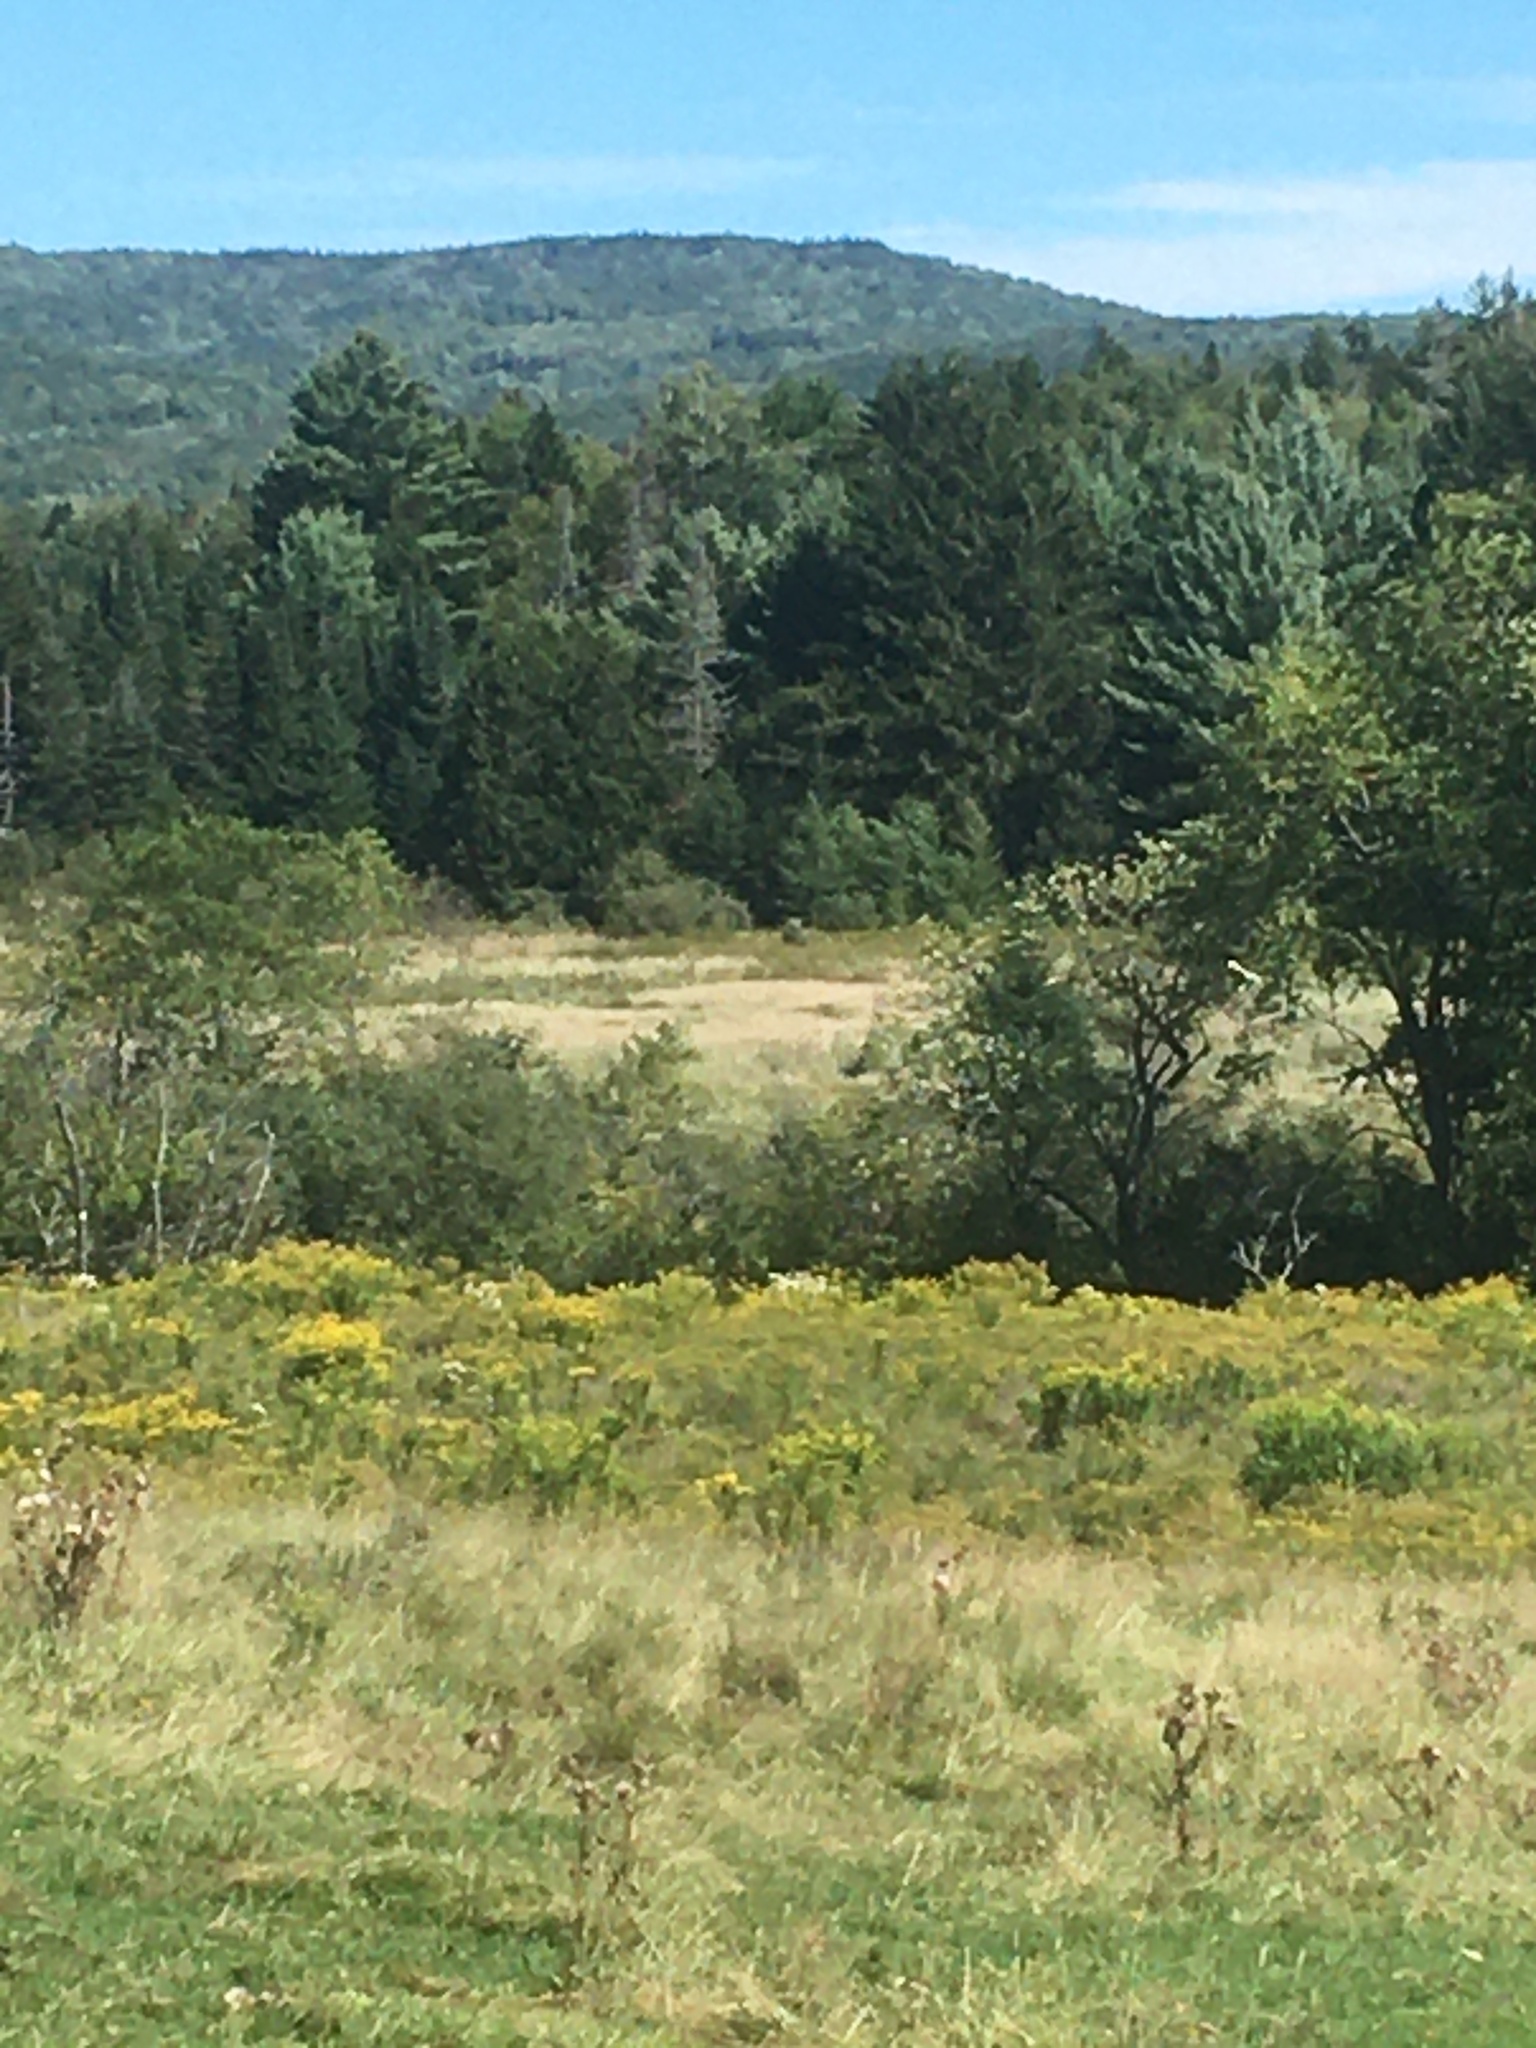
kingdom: Plantae
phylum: Tracheophyta
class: Pinopsida
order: Pinales
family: Pinaceae
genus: Pinus
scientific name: Pinus strobus
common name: Weymouth pine
